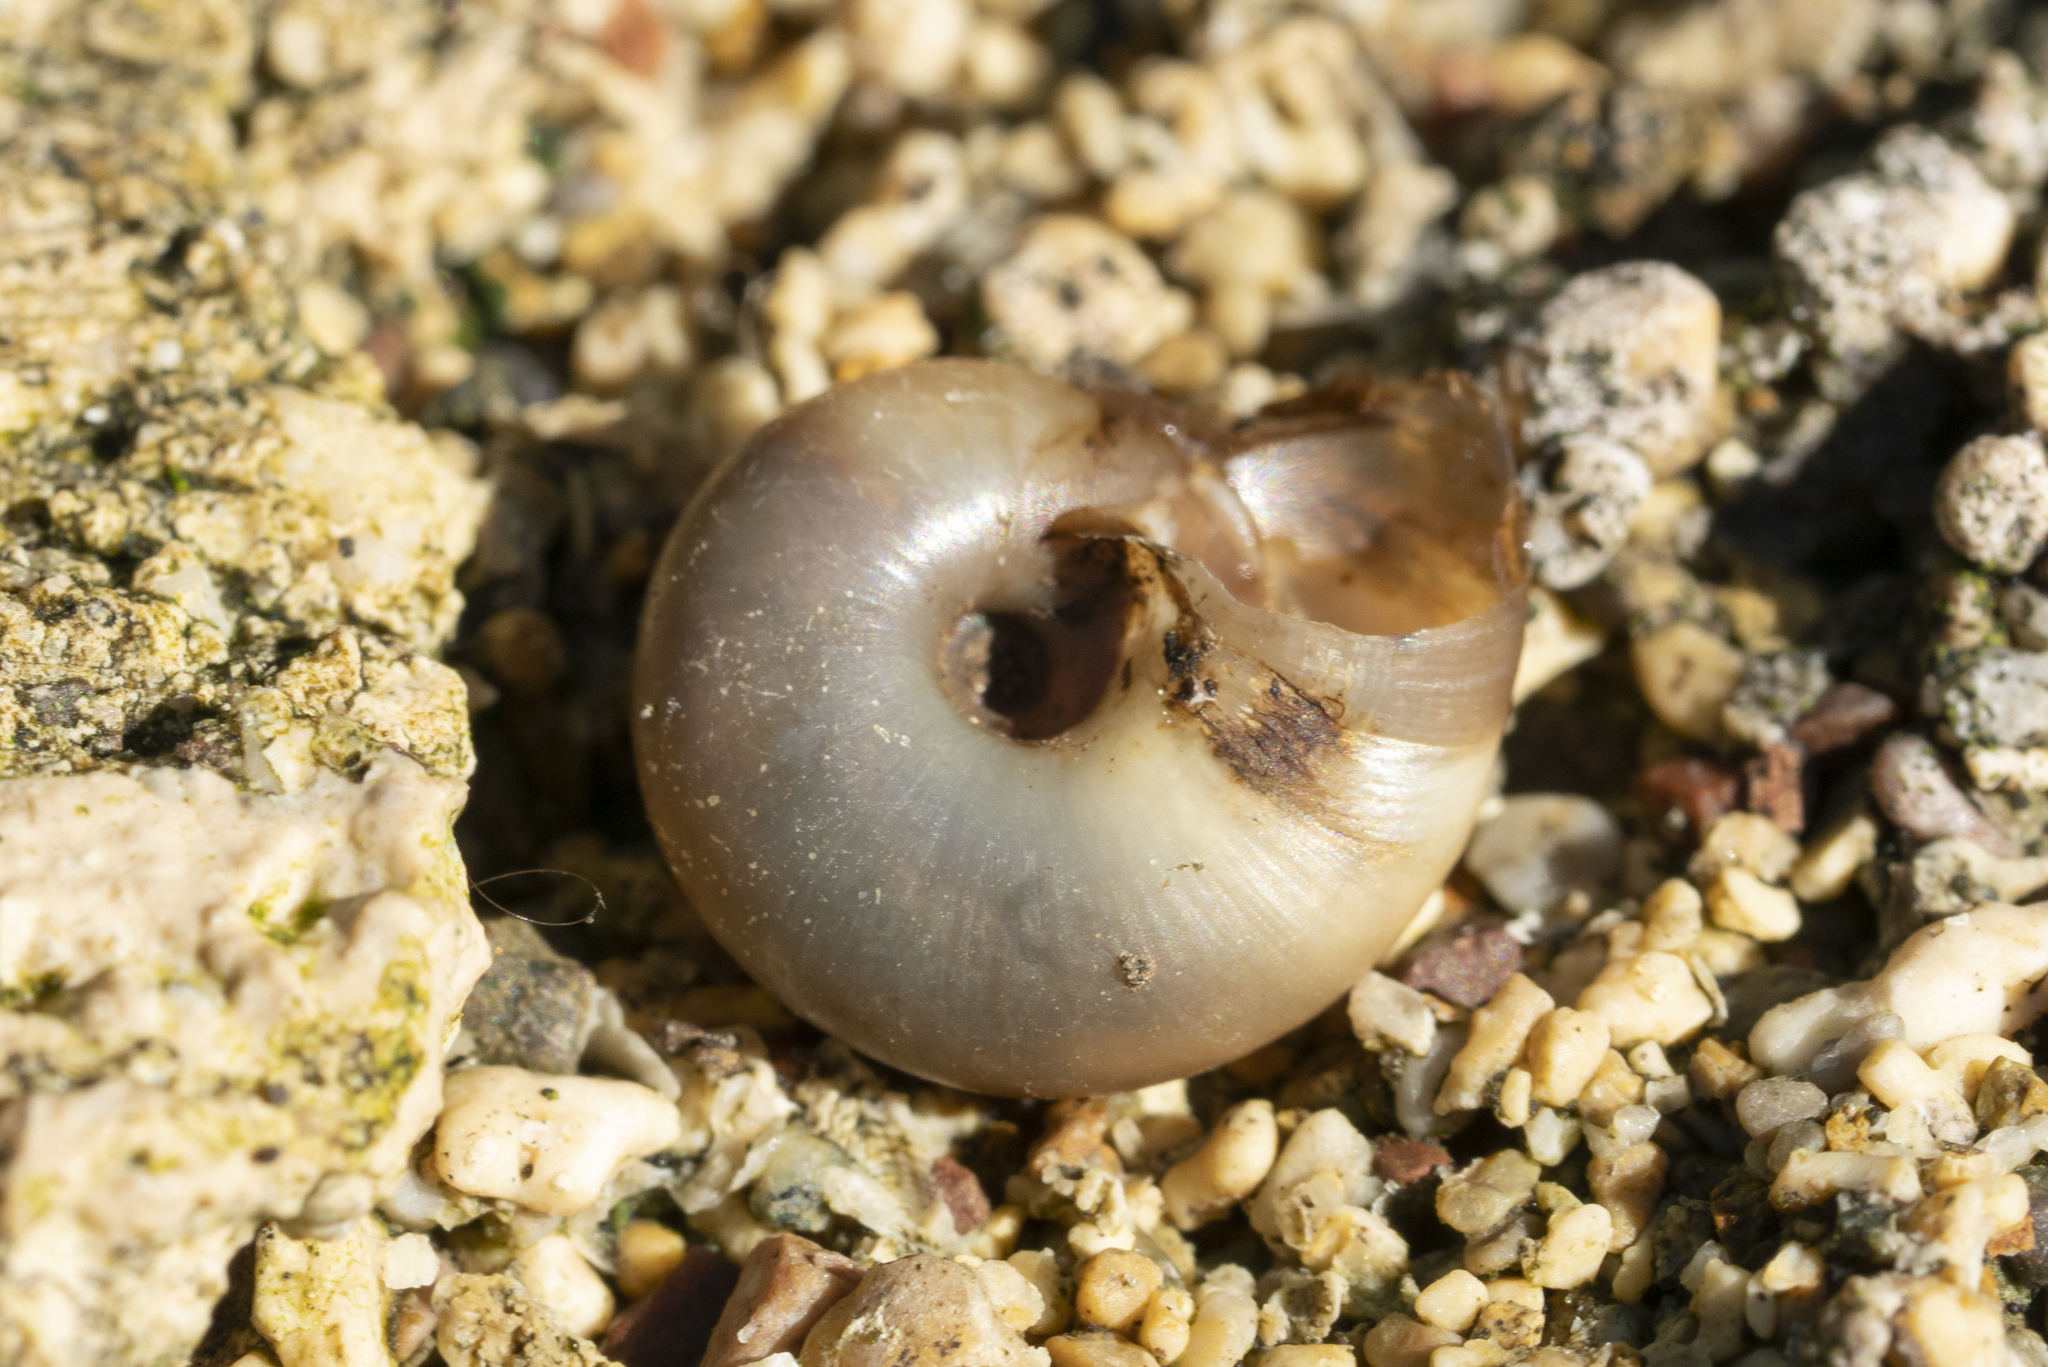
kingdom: Animalia
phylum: Mollusca
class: Gastropoda
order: Stylommatophora
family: Oxychilidae
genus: Eopolita
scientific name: Eopolita protensa
